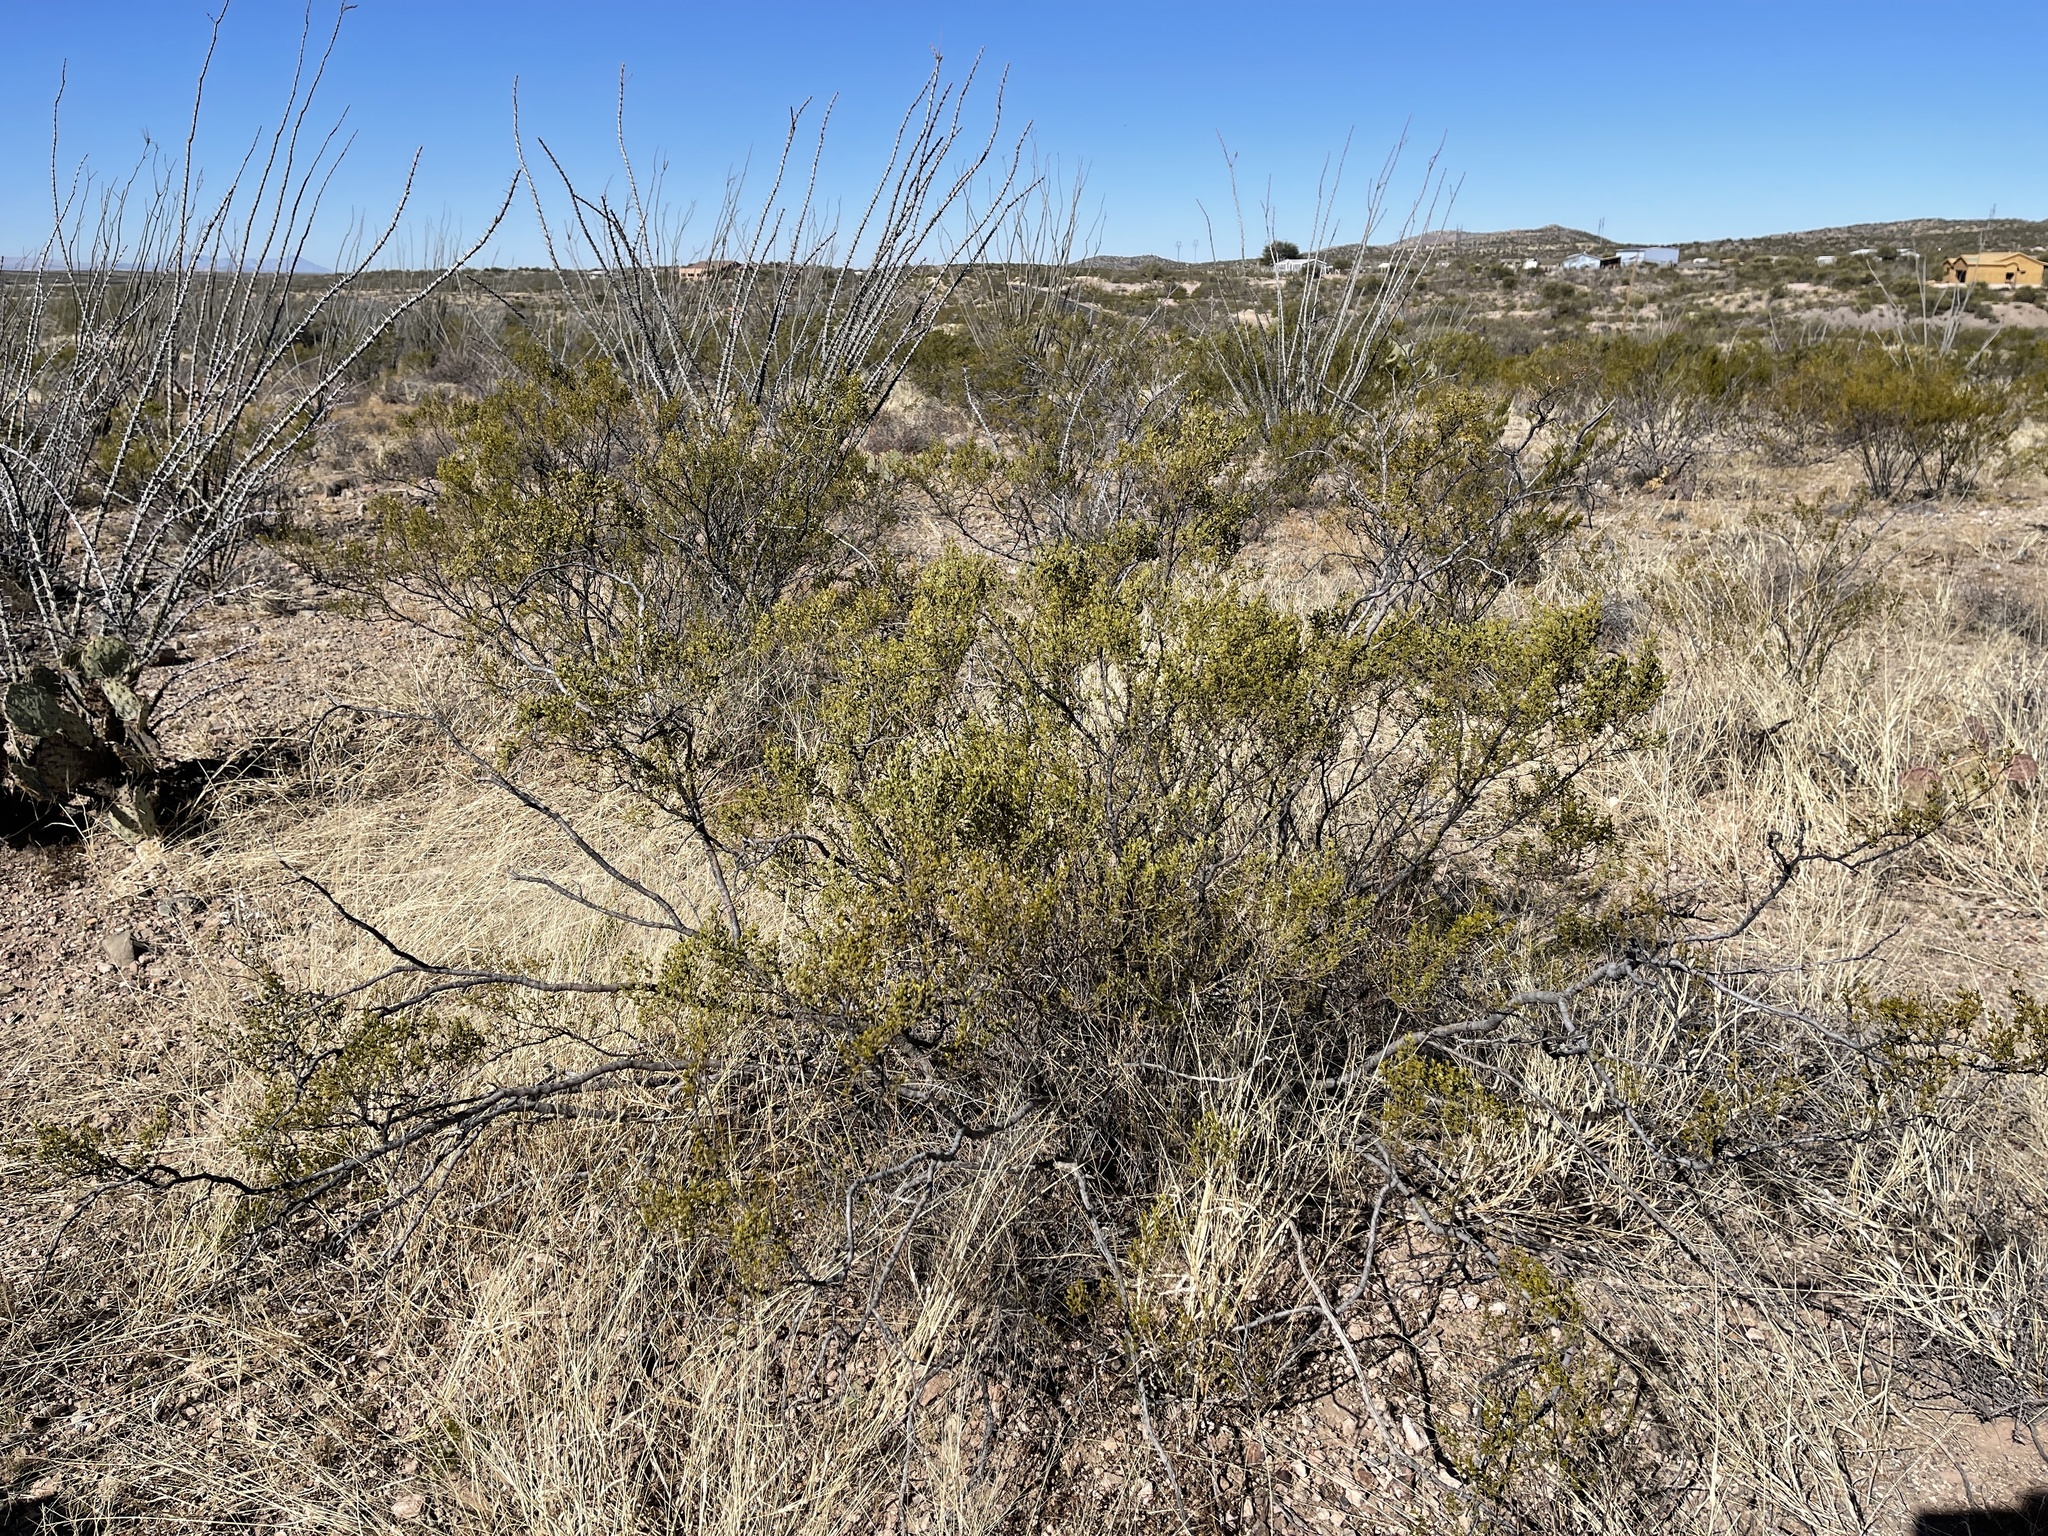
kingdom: Plantae
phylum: Tracheophyta
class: Magnoliopsida
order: Zygophyllales
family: Zygophyllaceae
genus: Larrea
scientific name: Larrea tridentata
